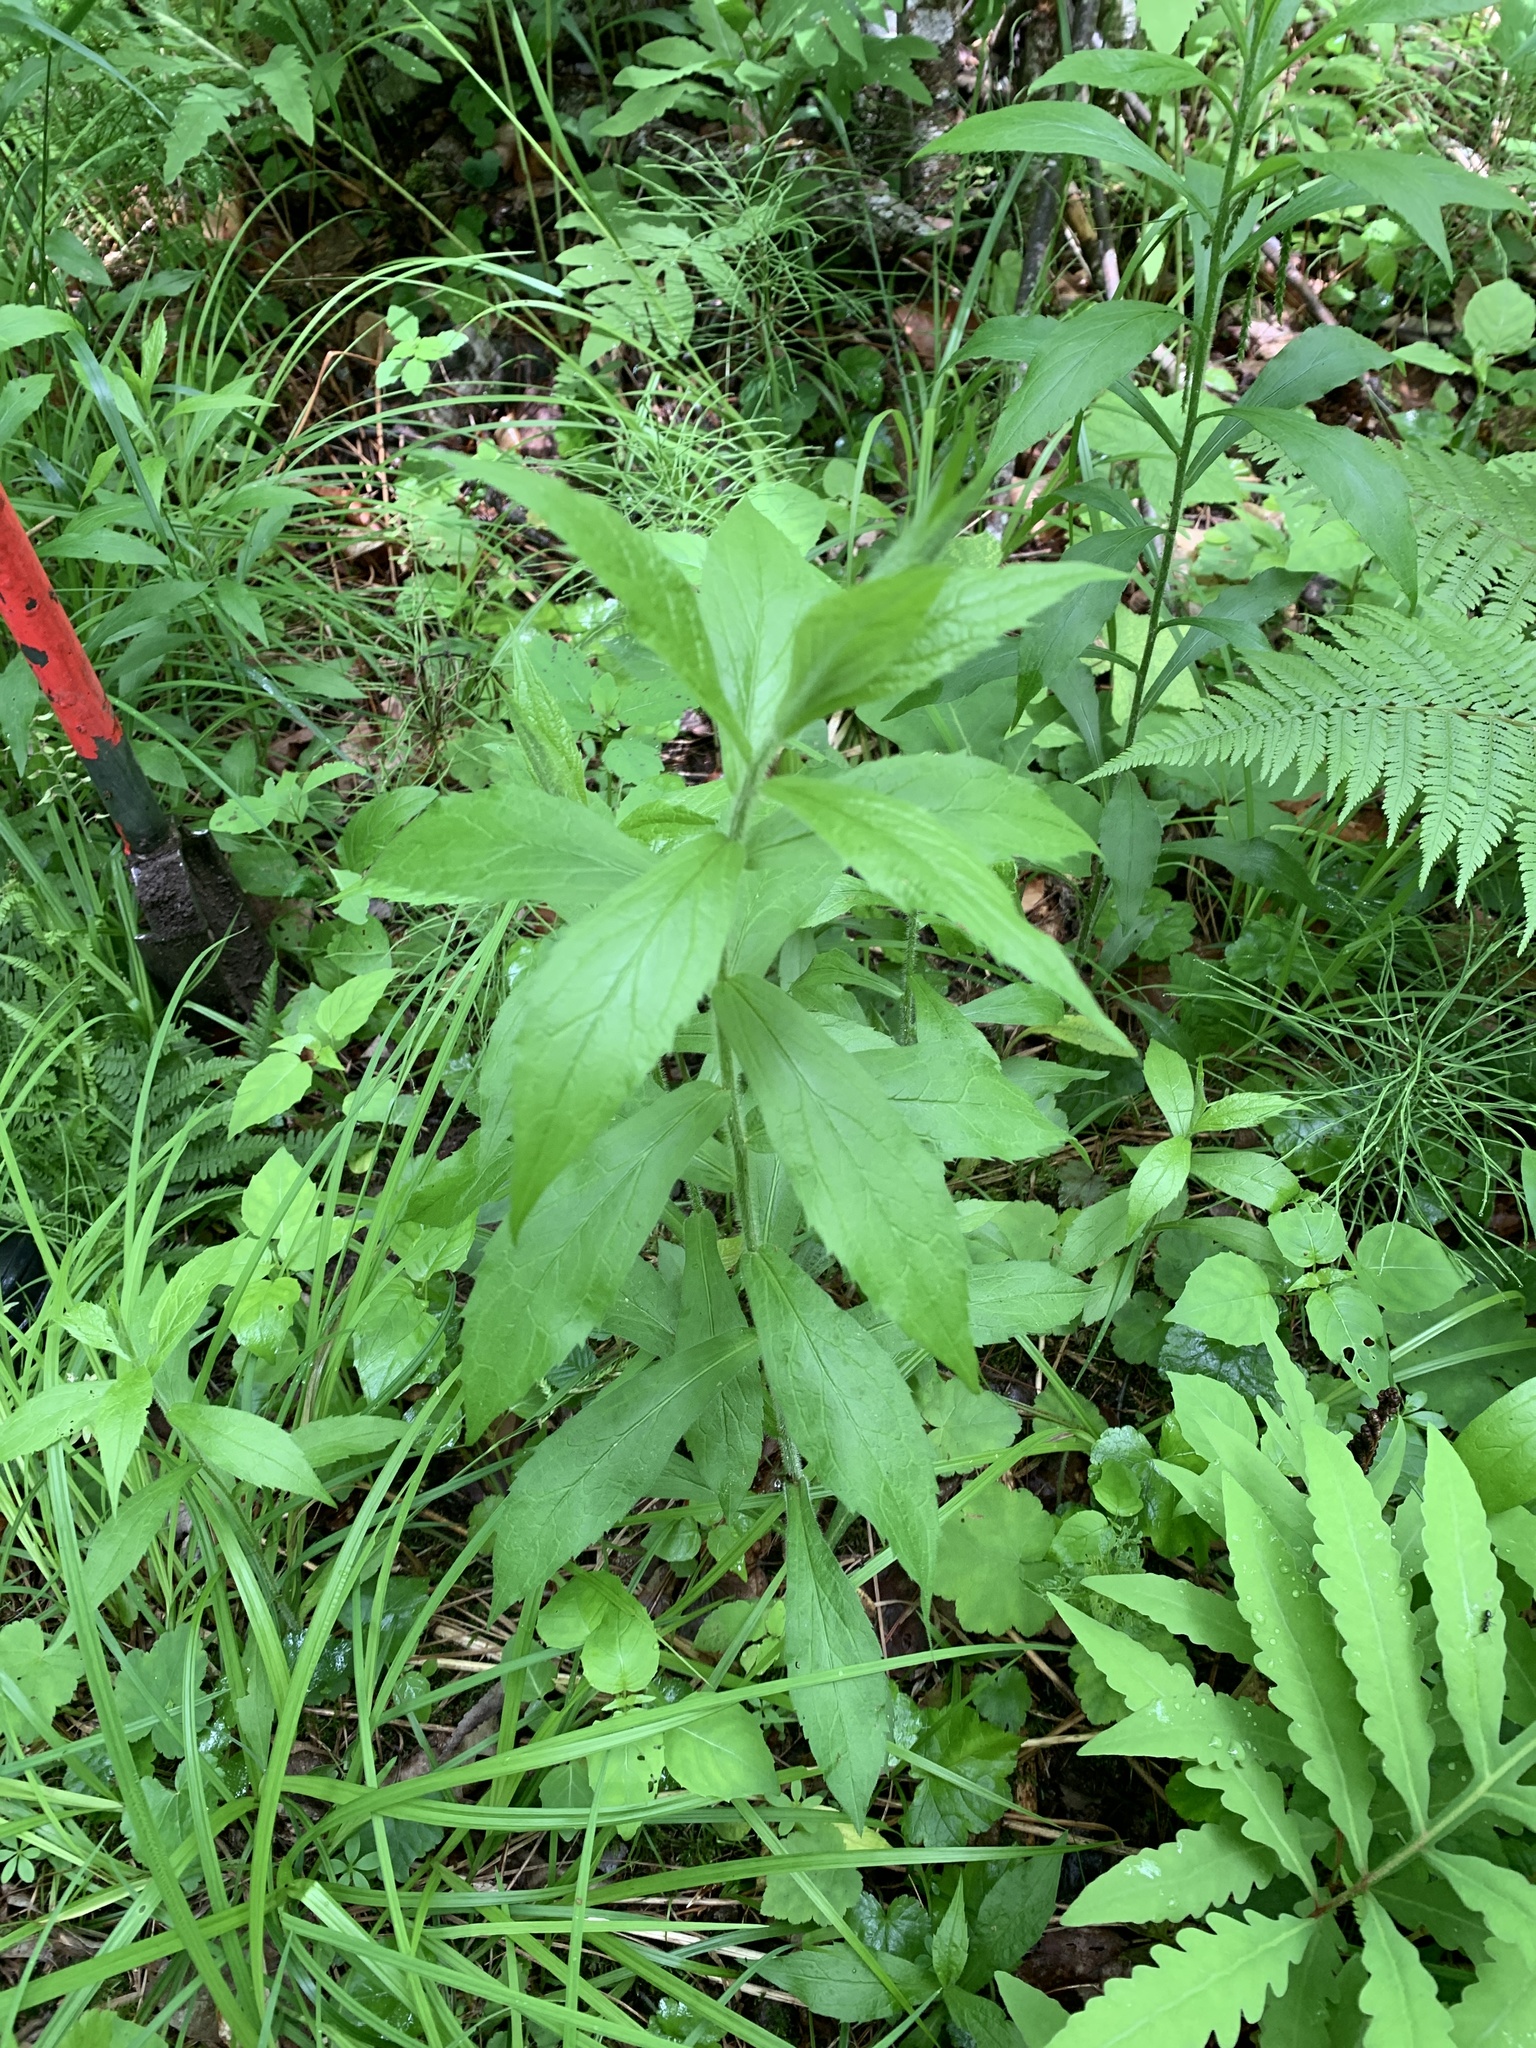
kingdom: Plantae
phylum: Tracheophyta
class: Magnoliopsida
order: Asterales
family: Asteraceae
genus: Solidago
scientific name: Solidago rugosa
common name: Rough-stemmed goldenrod
